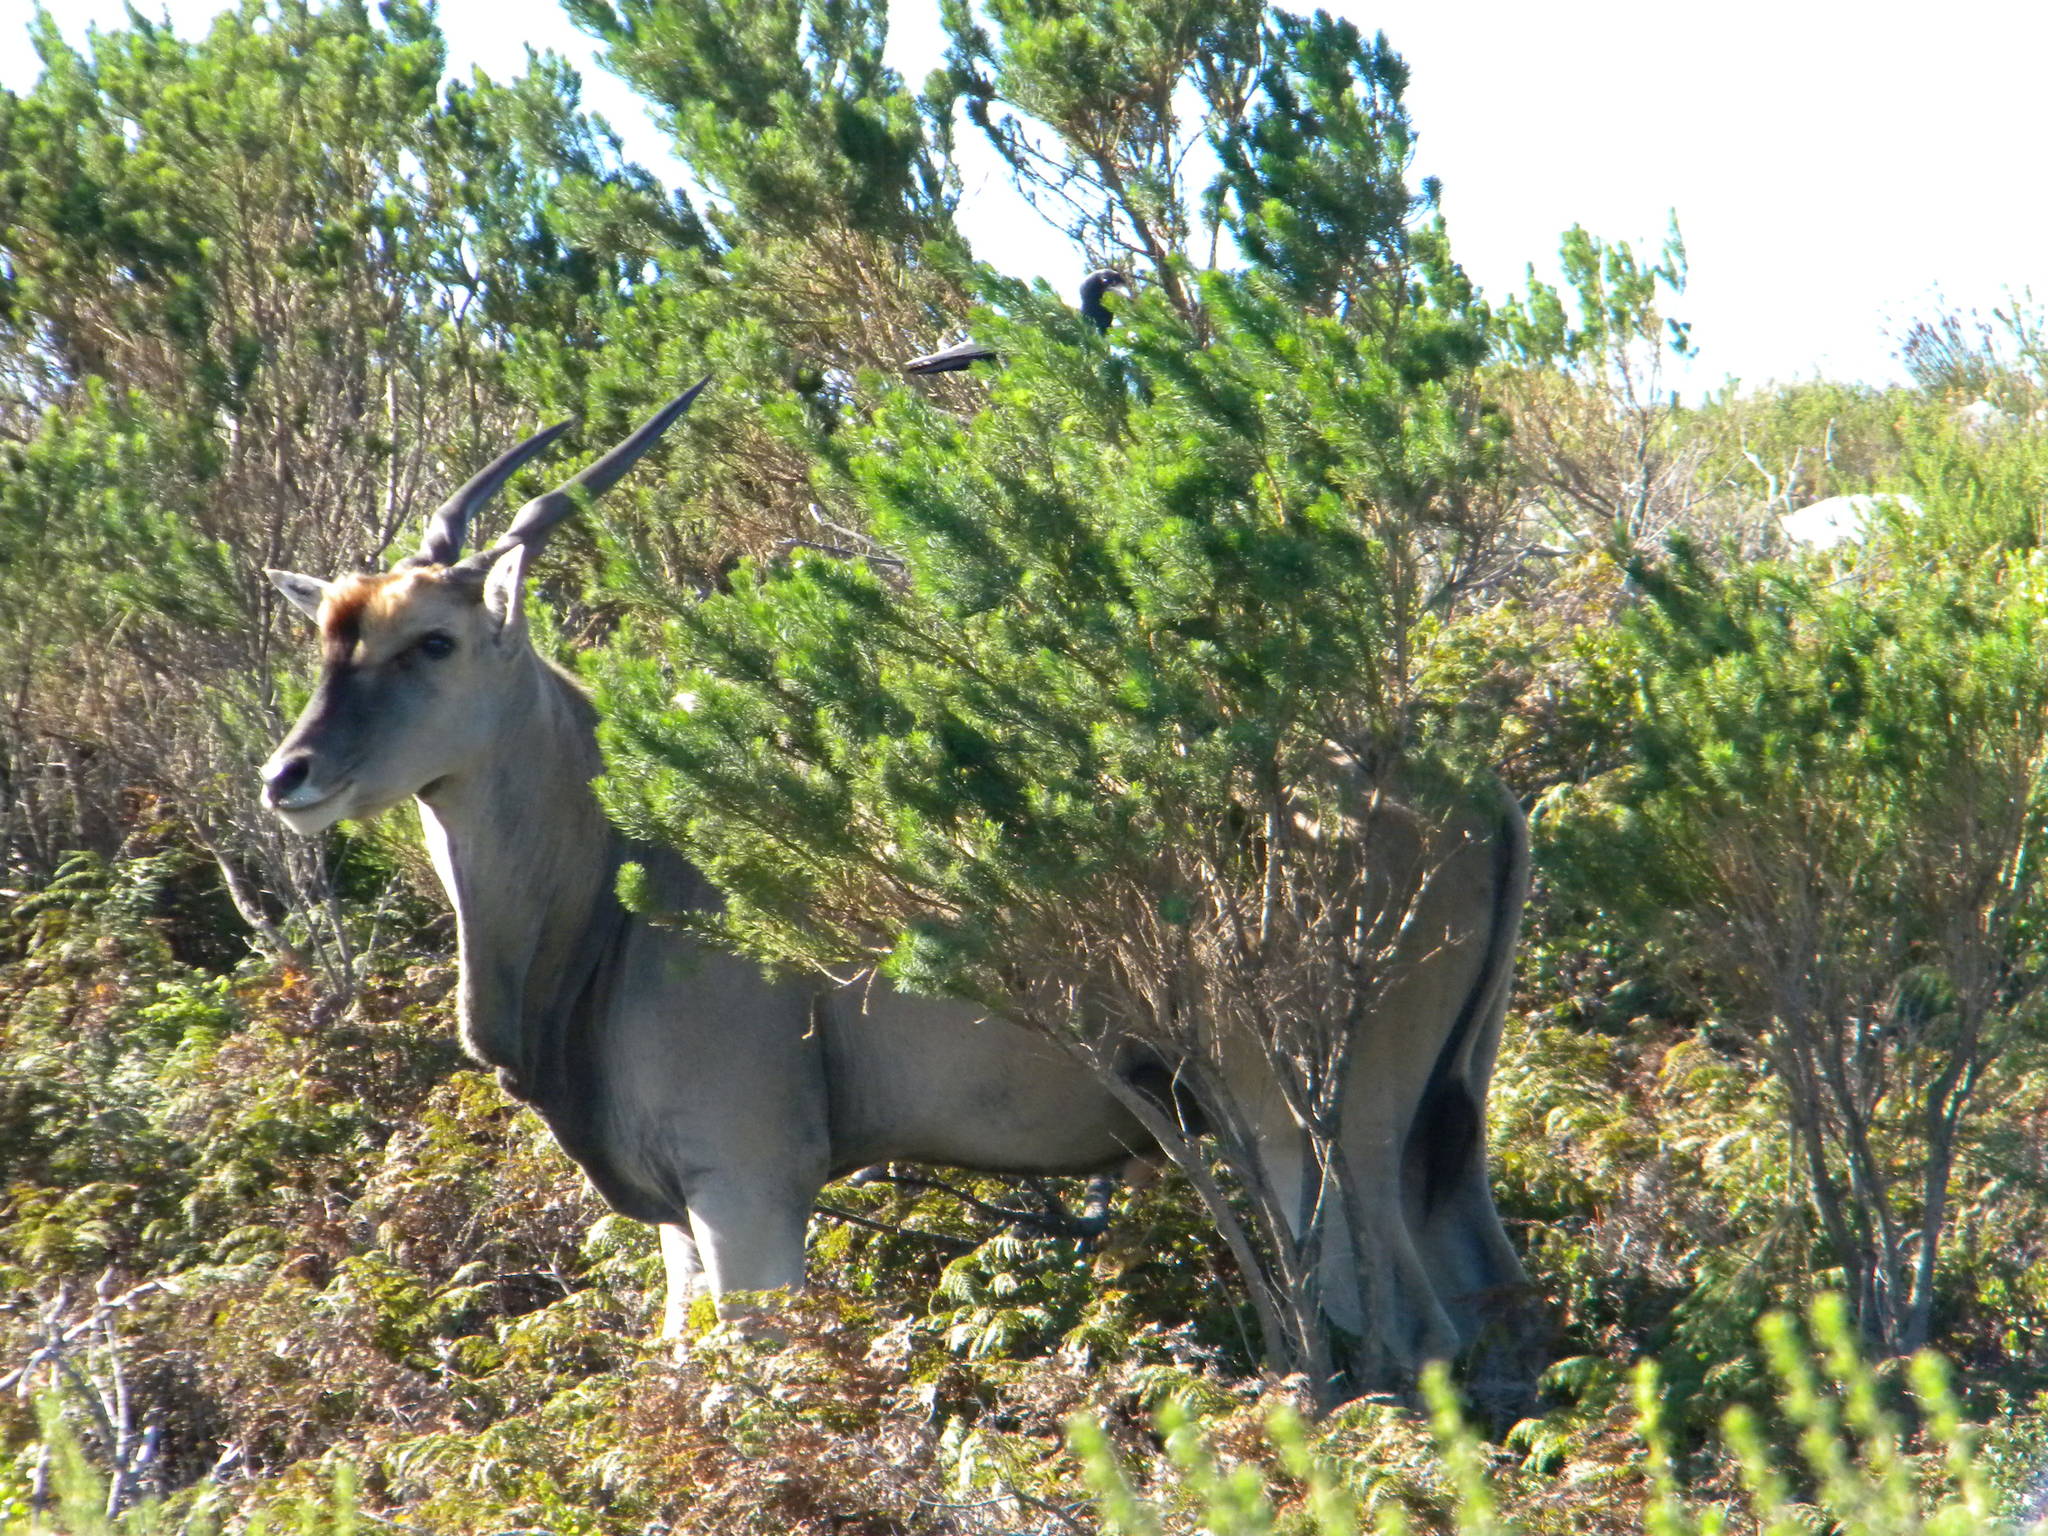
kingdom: Animalia
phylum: Chordata
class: Mammalia
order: Artiodactyla
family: Bovidae
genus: Taurotragus
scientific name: Taurotragus oryx
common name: Common eland
